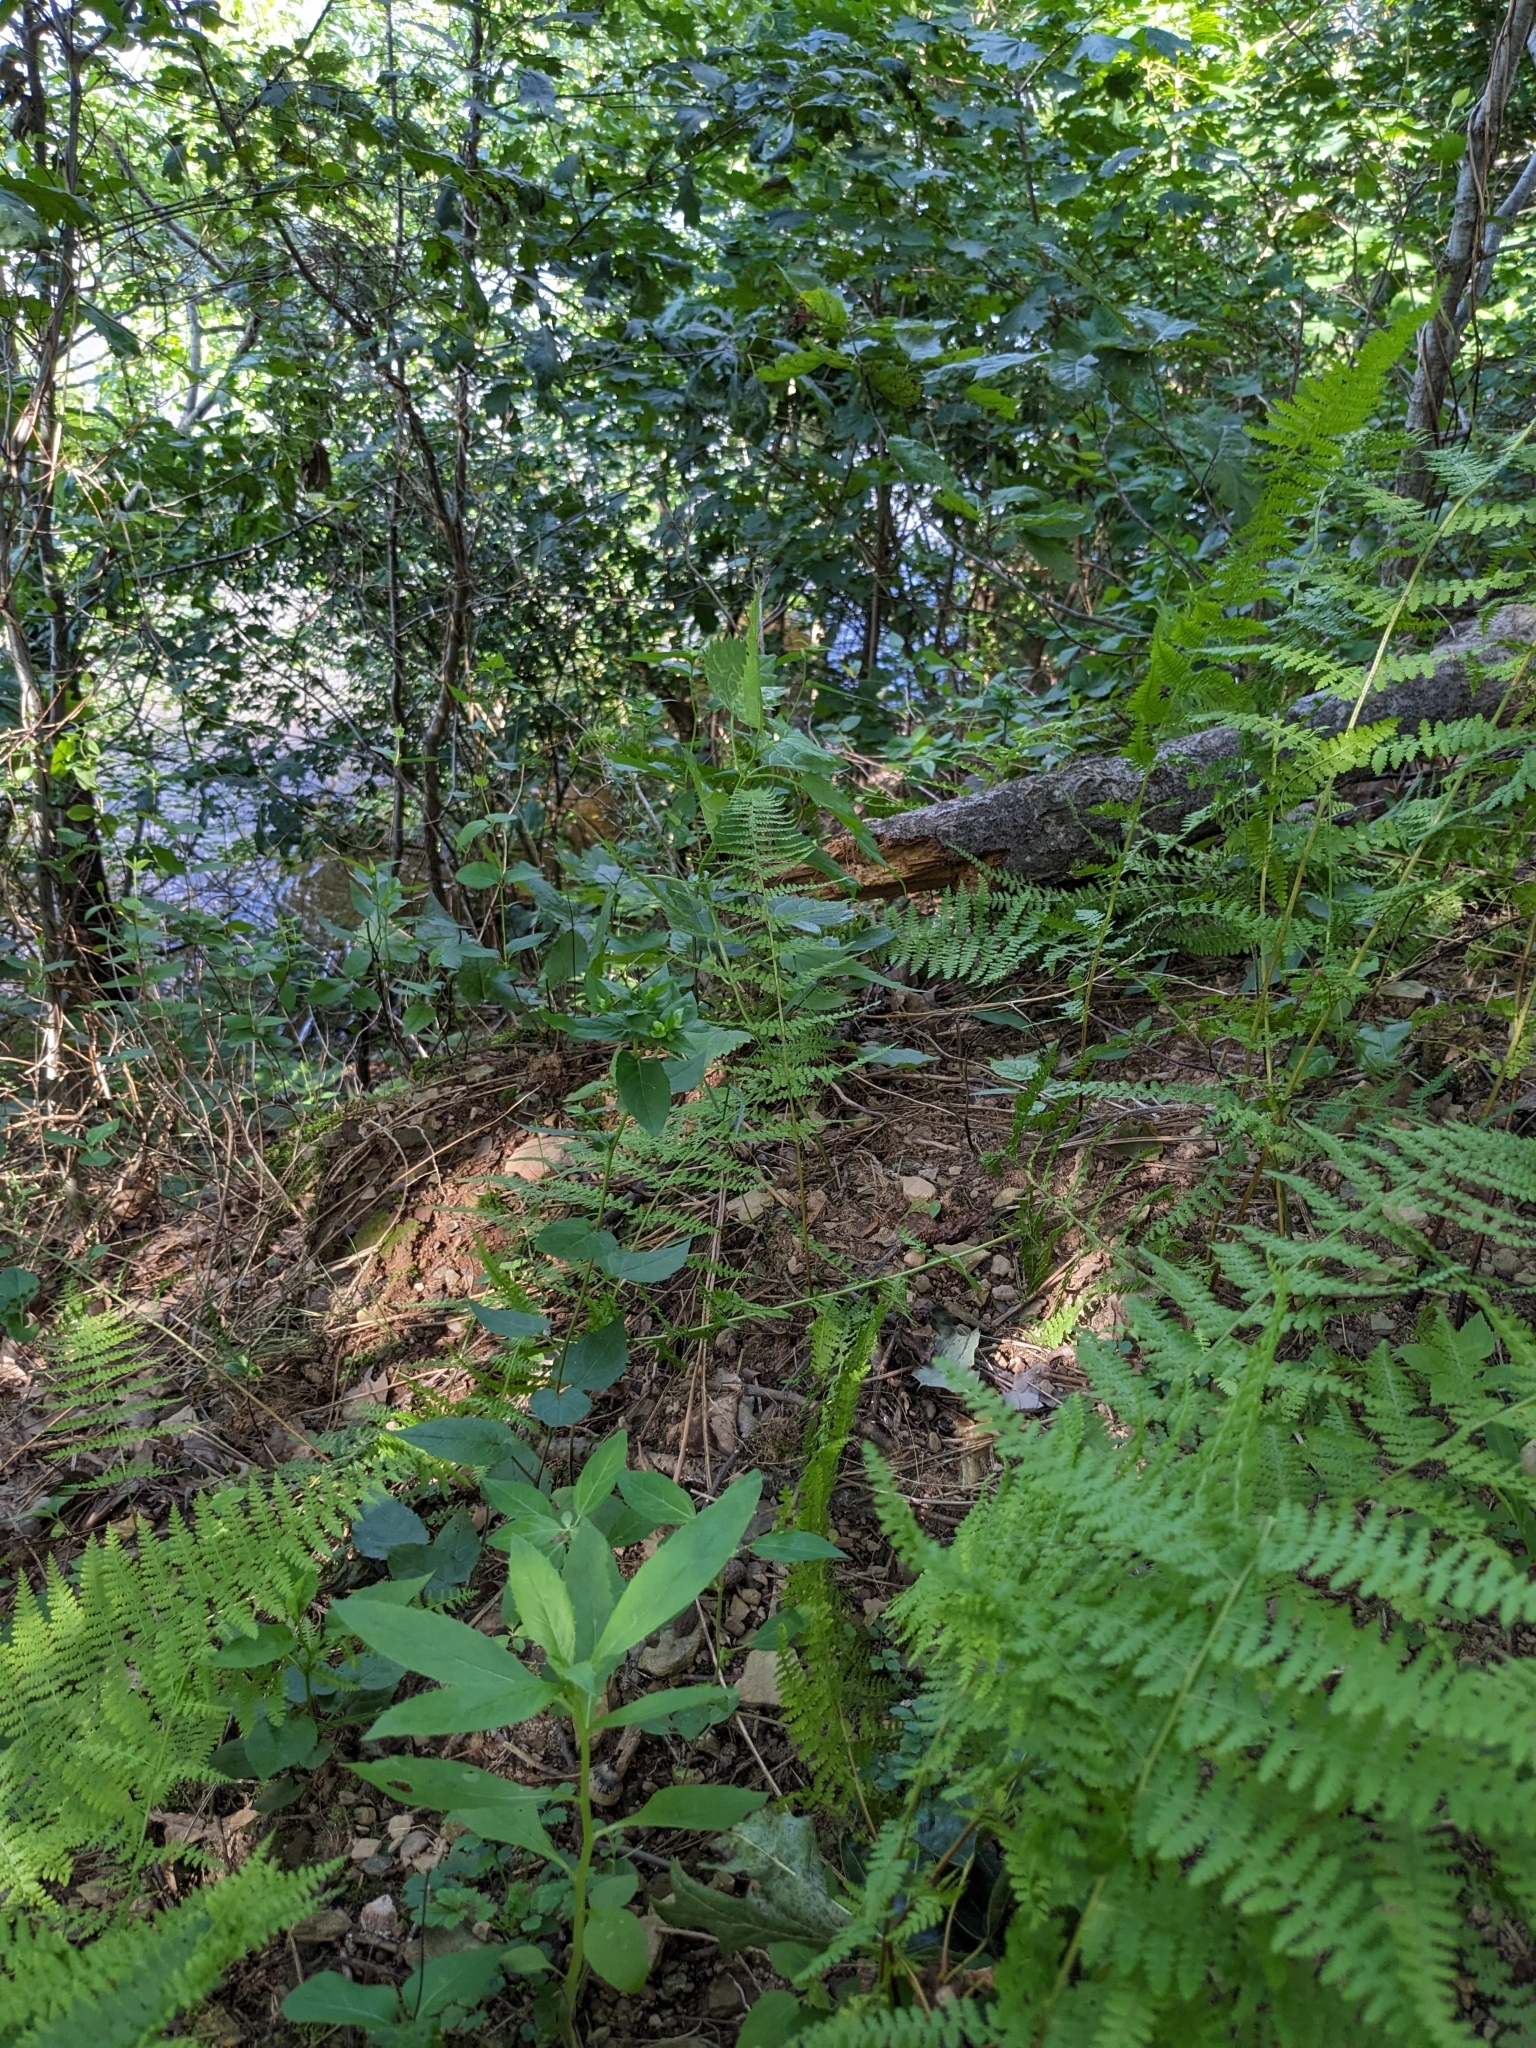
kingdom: Plantae
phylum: Tracheophyta
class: Polypodiopsida
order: Polypodiales
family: Dennstaedtiaceae
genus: Sitobolium
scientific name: Sitobolium punctilobum
